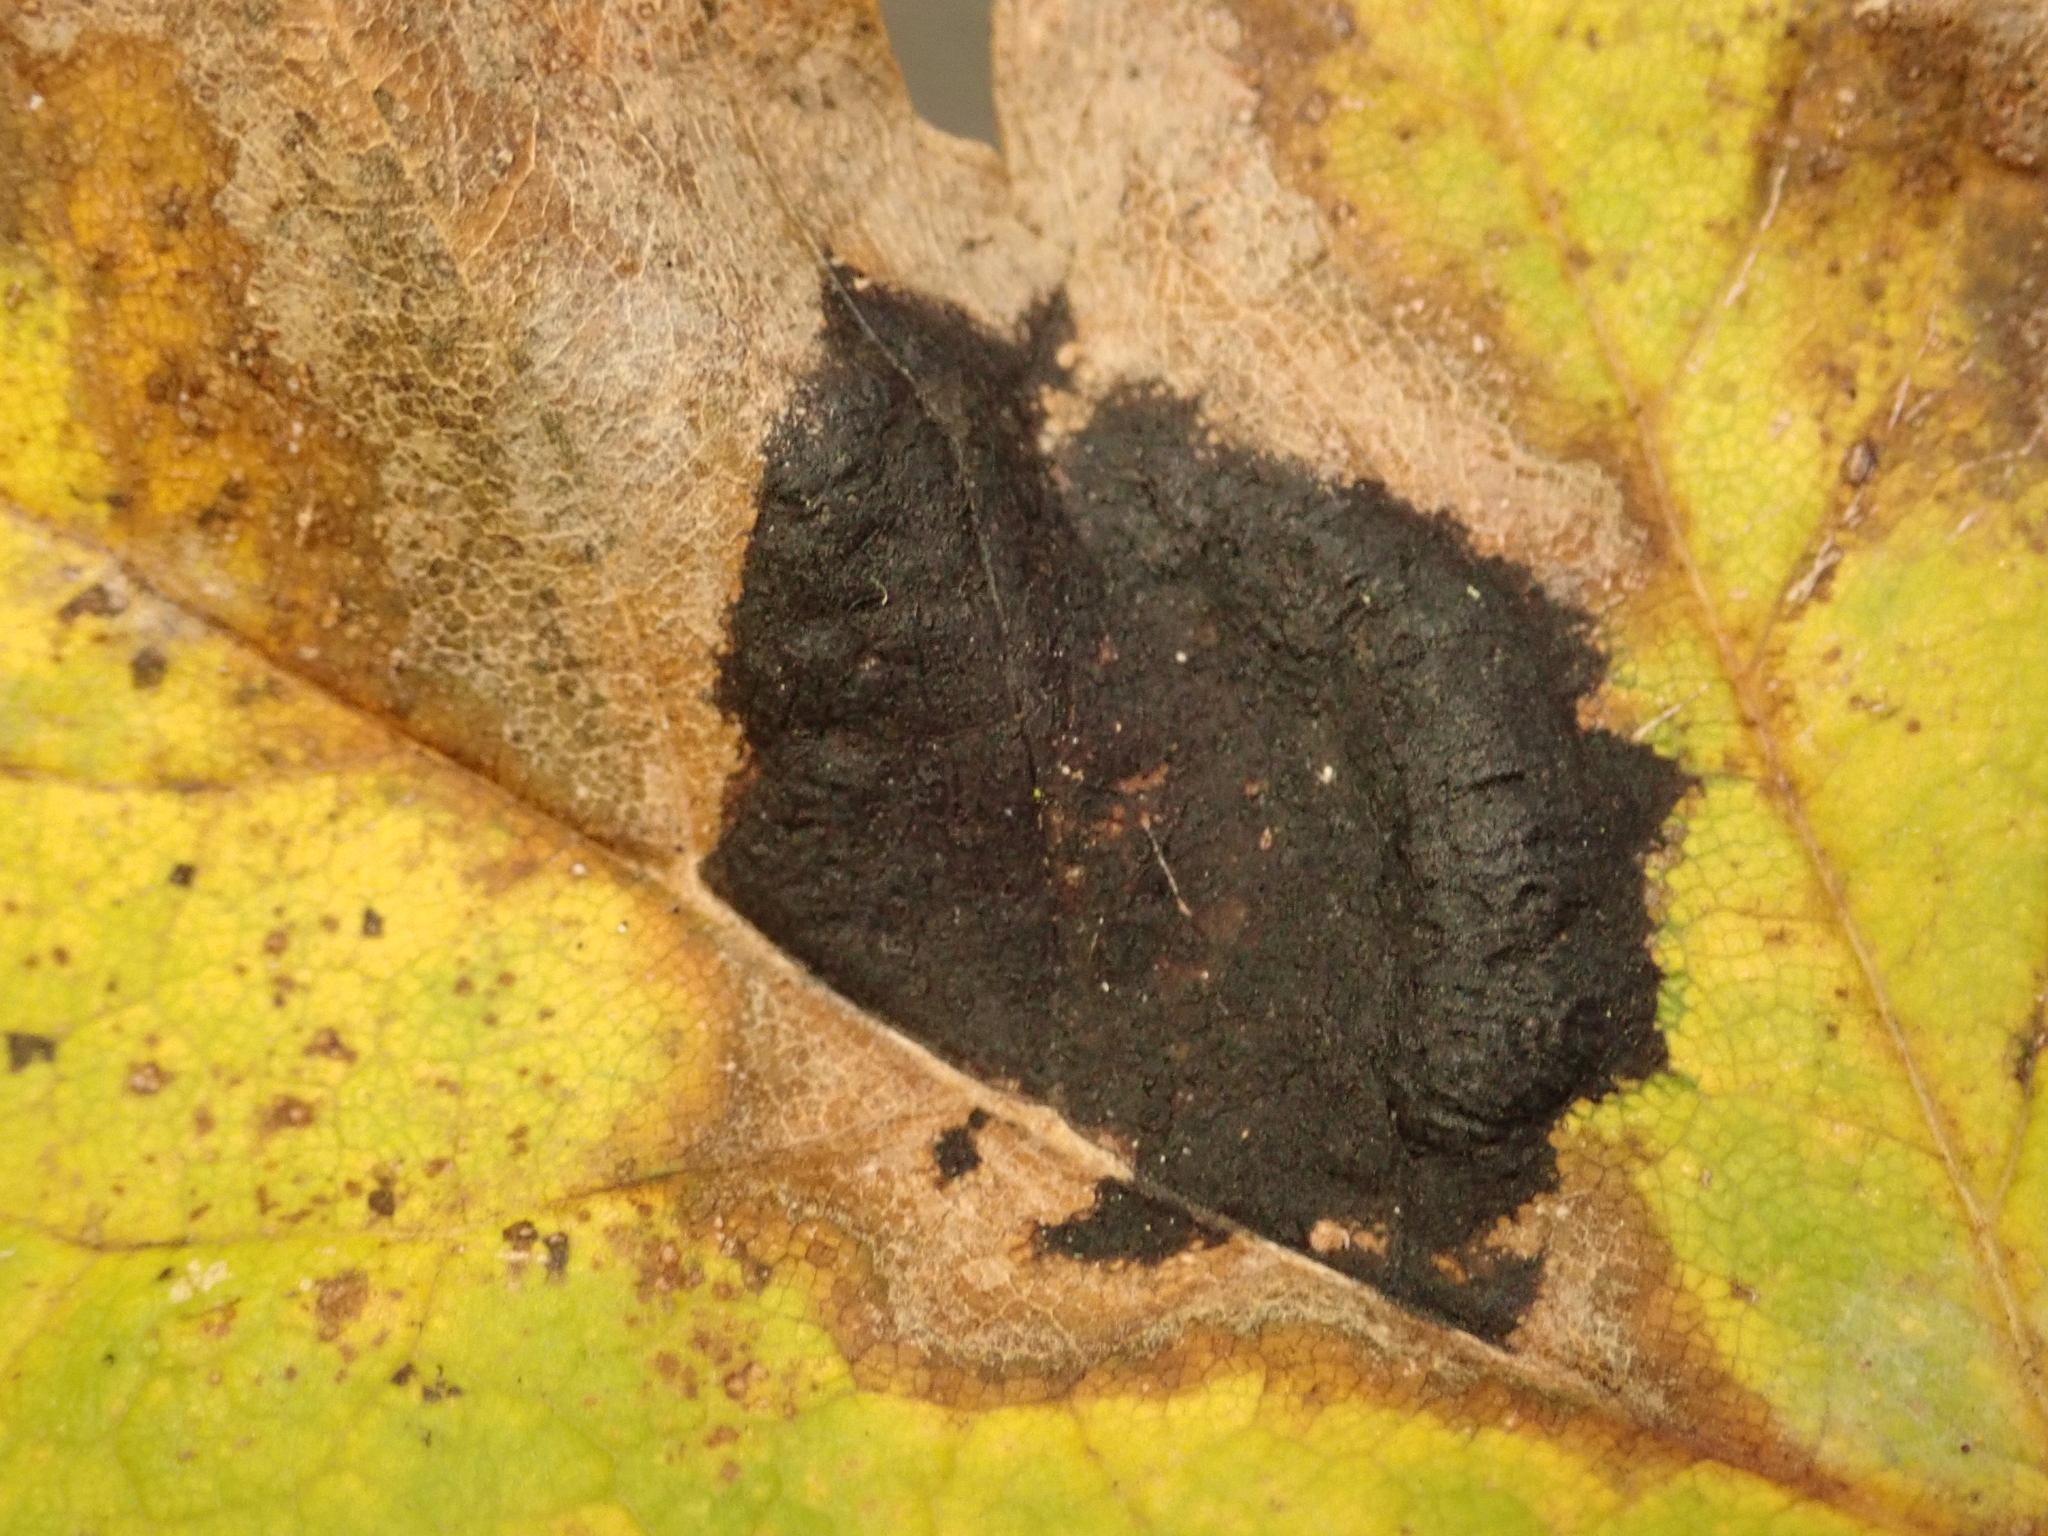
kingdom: Fungi
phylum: Ascomycota
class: Leotiomycetes
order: Rhytismatales
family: Rhytismataceae
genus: Rhytisma
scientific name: Rhytisma acerinum
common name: European tar spot
